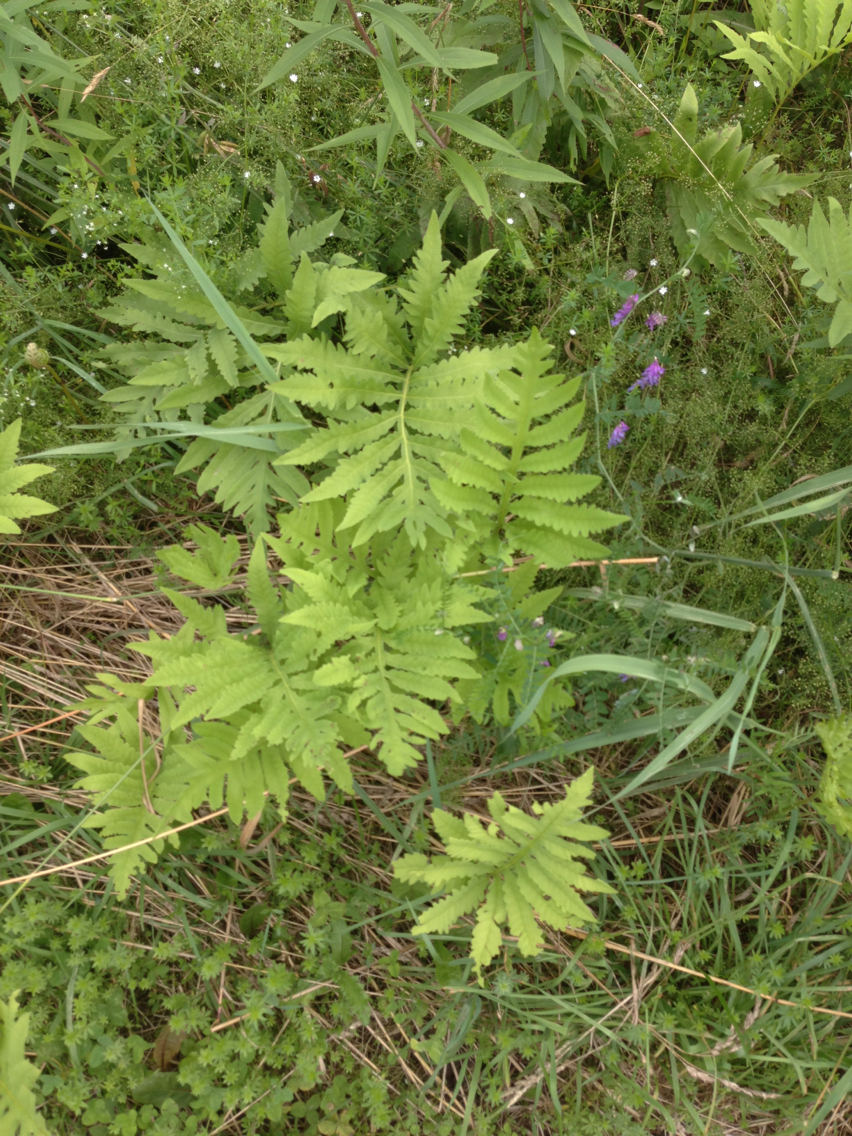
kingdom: Plantae
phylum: Tracheophyta
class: Polypodiopsida
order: Polypodiales
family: Onocleaceae
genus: Onoclea
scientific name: Onoclea sensibilis
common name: Sensitive fern
